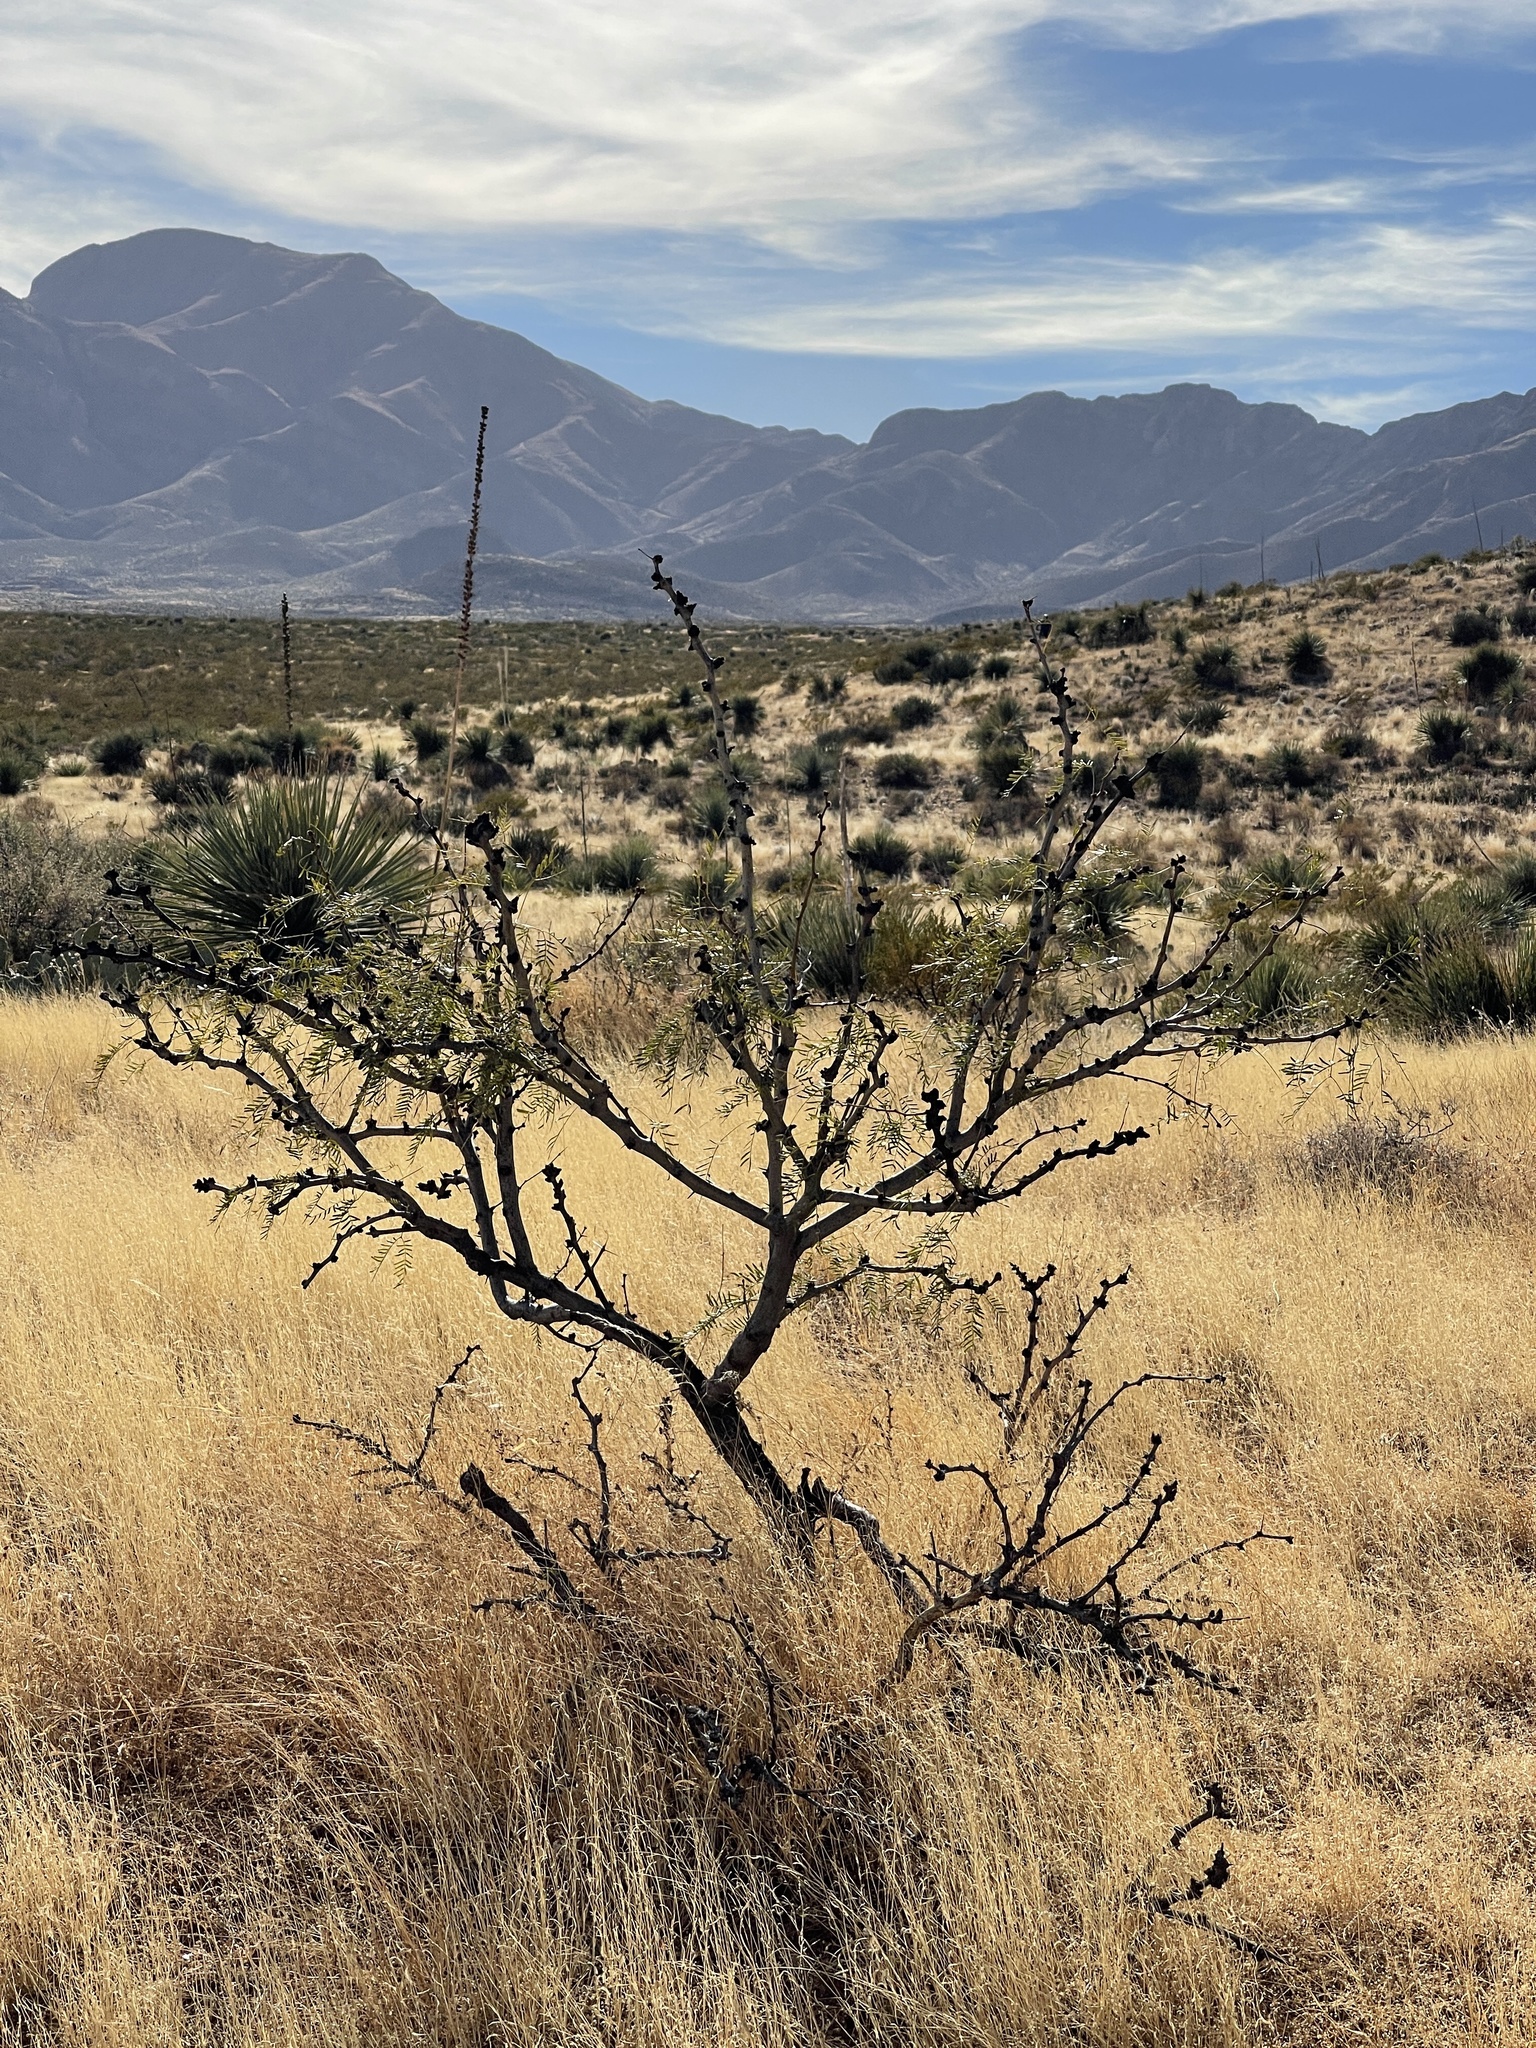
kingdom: Plantae
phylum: Tracheophyta
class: Magnoliopsida
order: Fabales
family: Fabaceae
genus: Prosopis
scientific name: Prosopis glandulosa
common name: Honey mesquite
